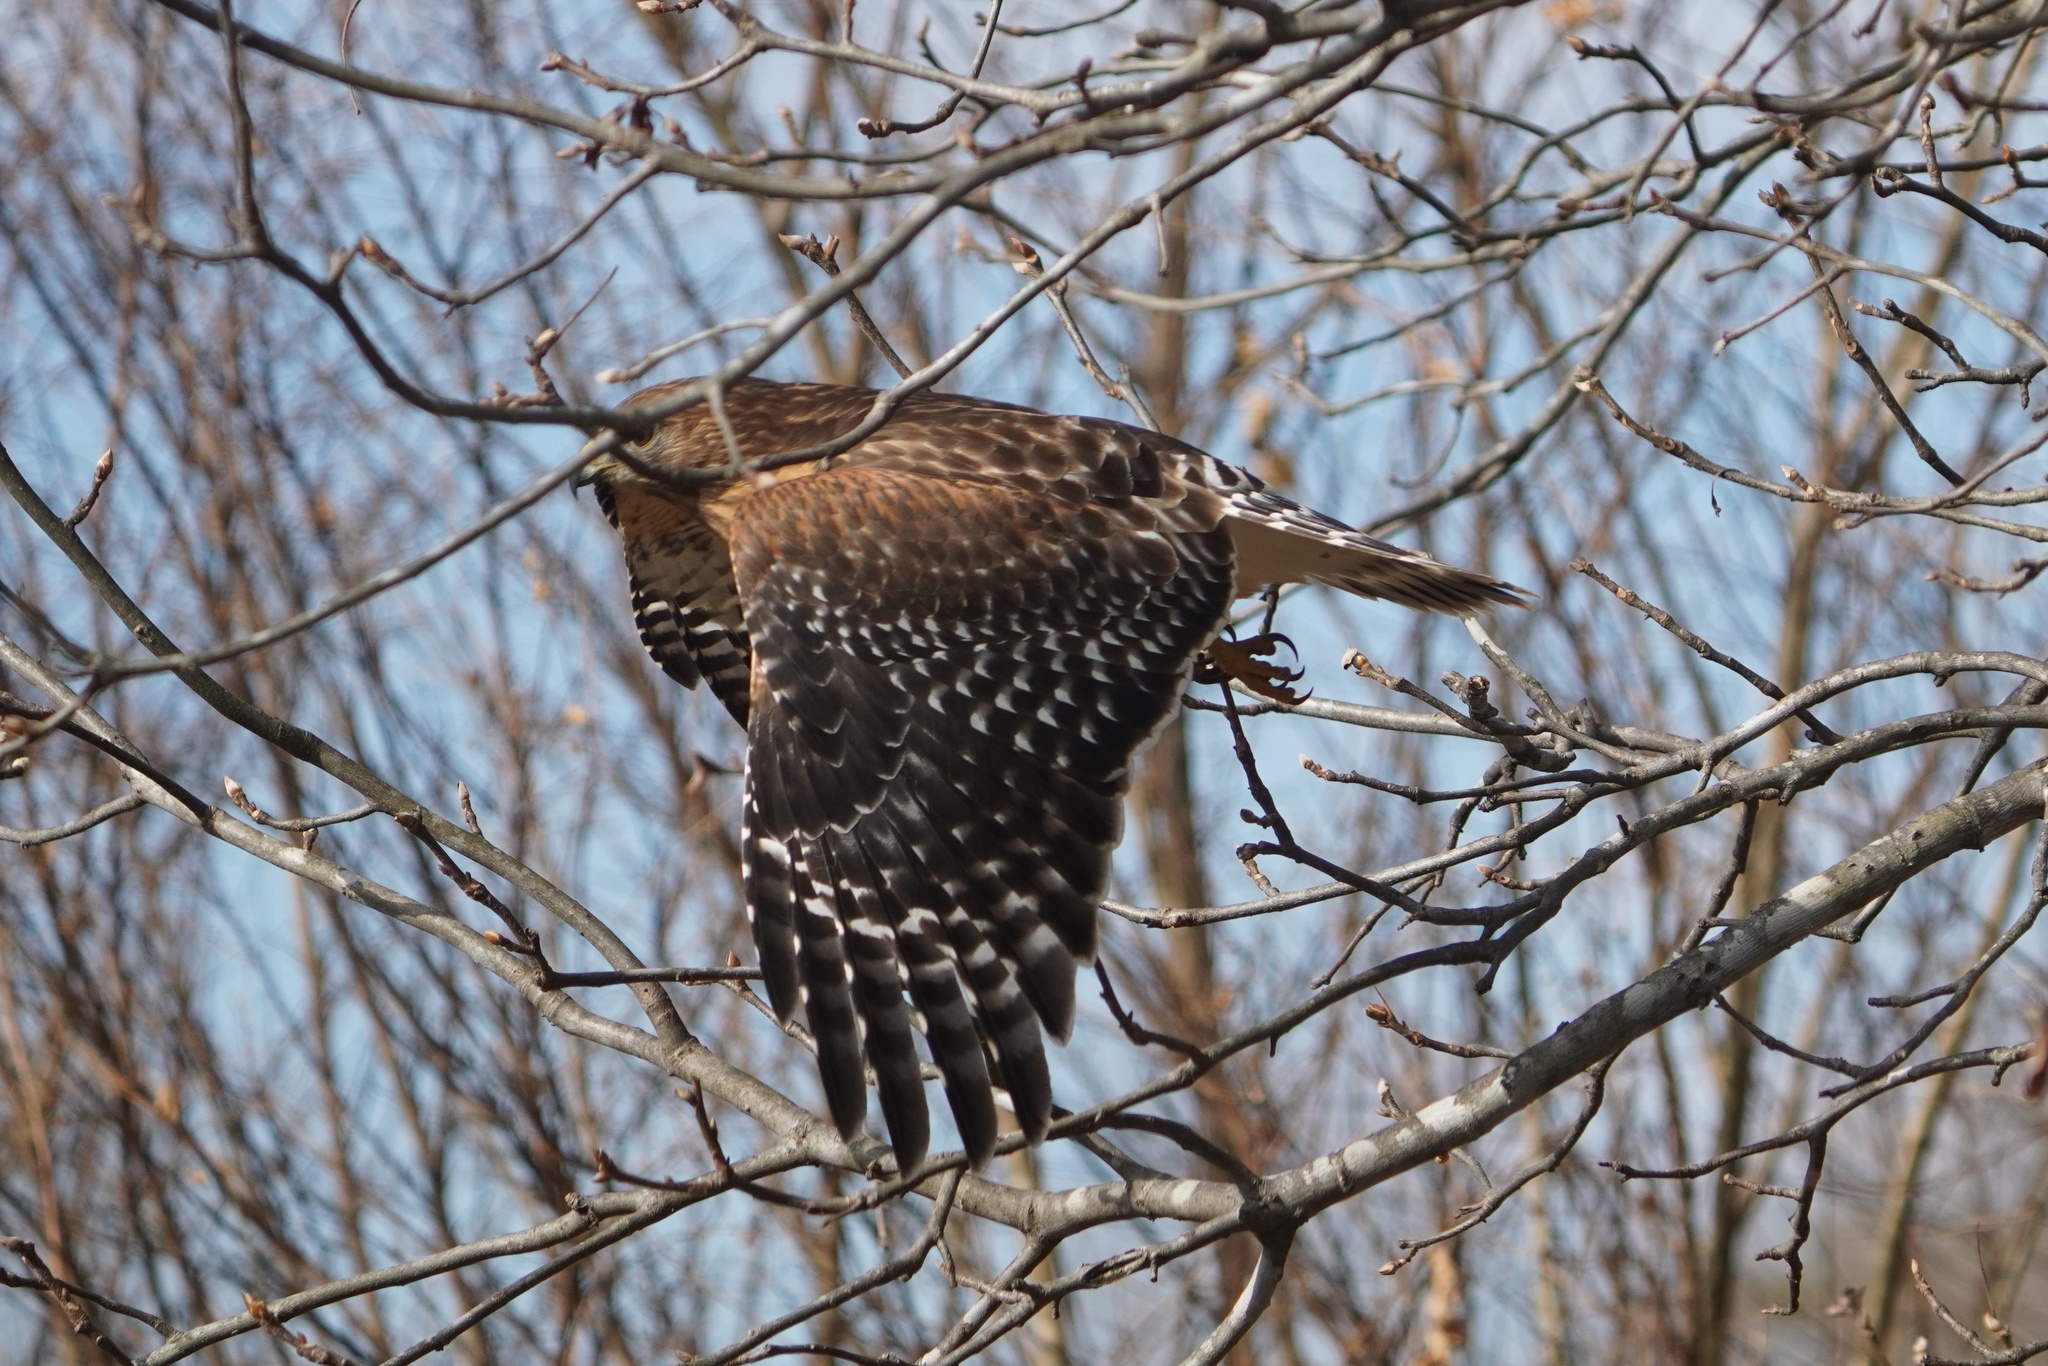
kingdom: Animalia
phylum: Chordata
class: Aves
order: Accipitriformes
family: Accipitridae
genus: Buteo
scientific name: Buteo lineatus
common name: Red-shouldered hawk
